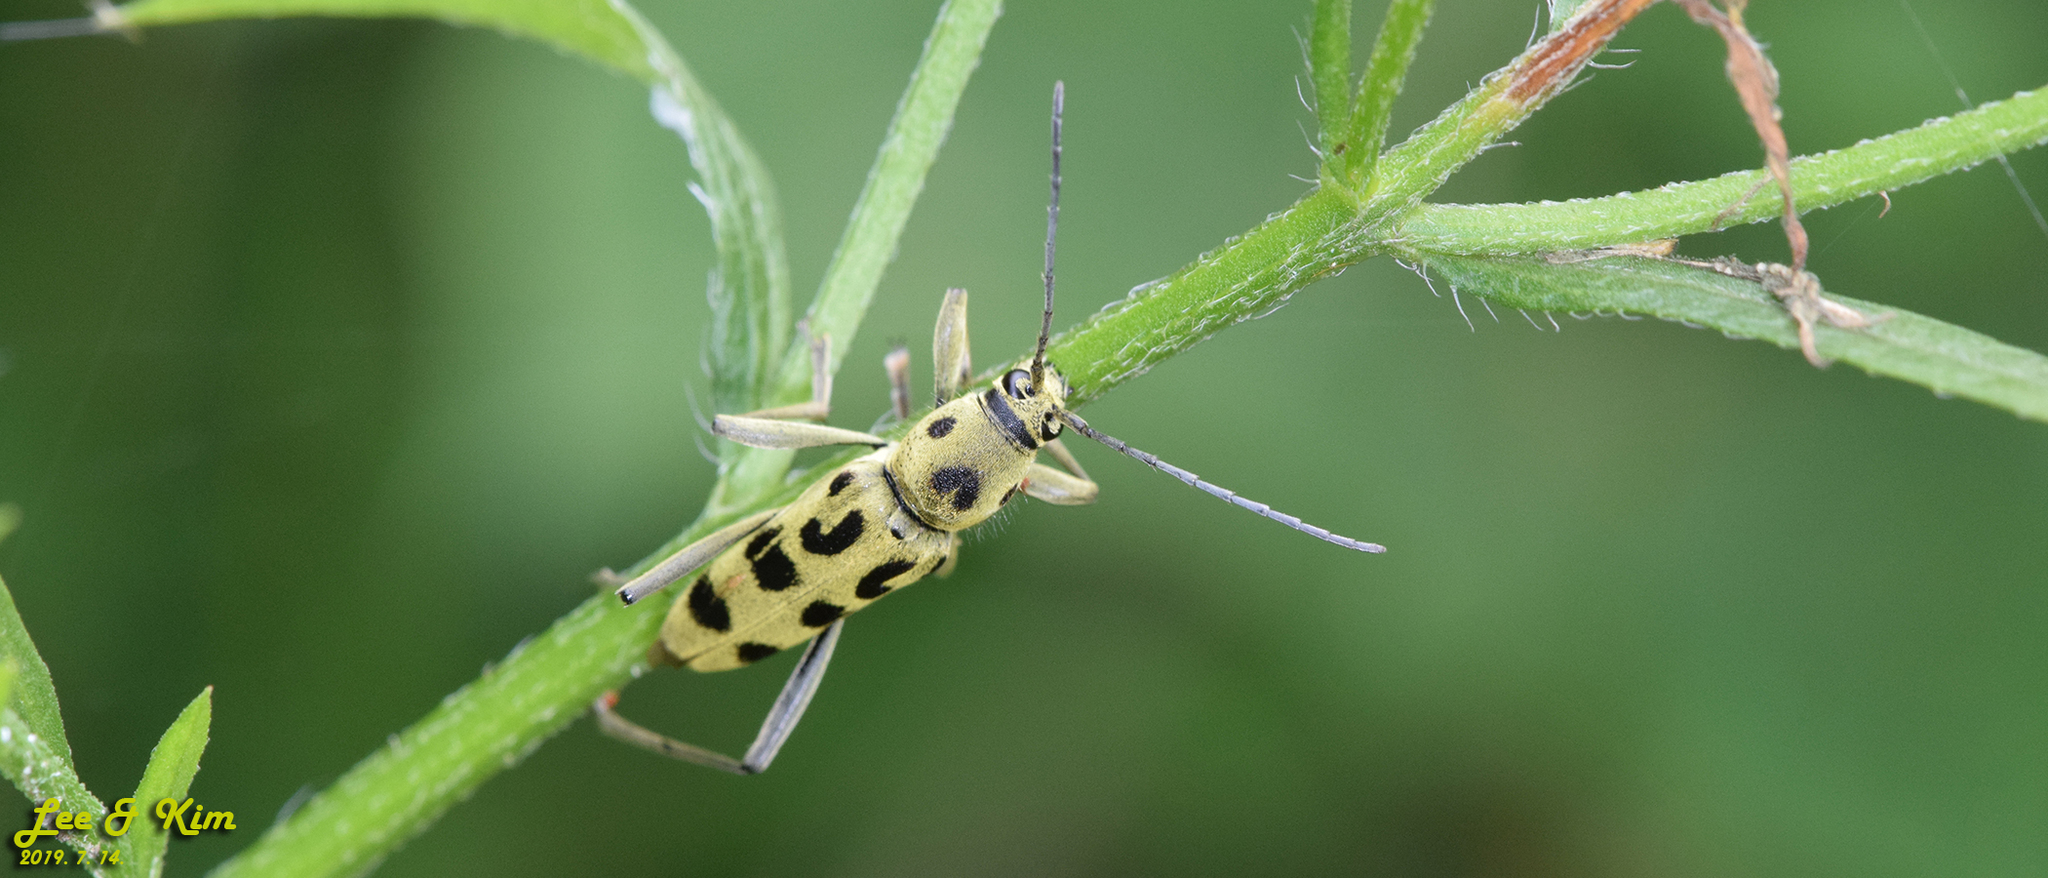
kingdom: Animalia
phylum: Arthropoda
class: Insecta
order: Coleoptera
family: Cerambycidae
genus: Chlorophorus
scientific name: Chlorophorus simillimus
